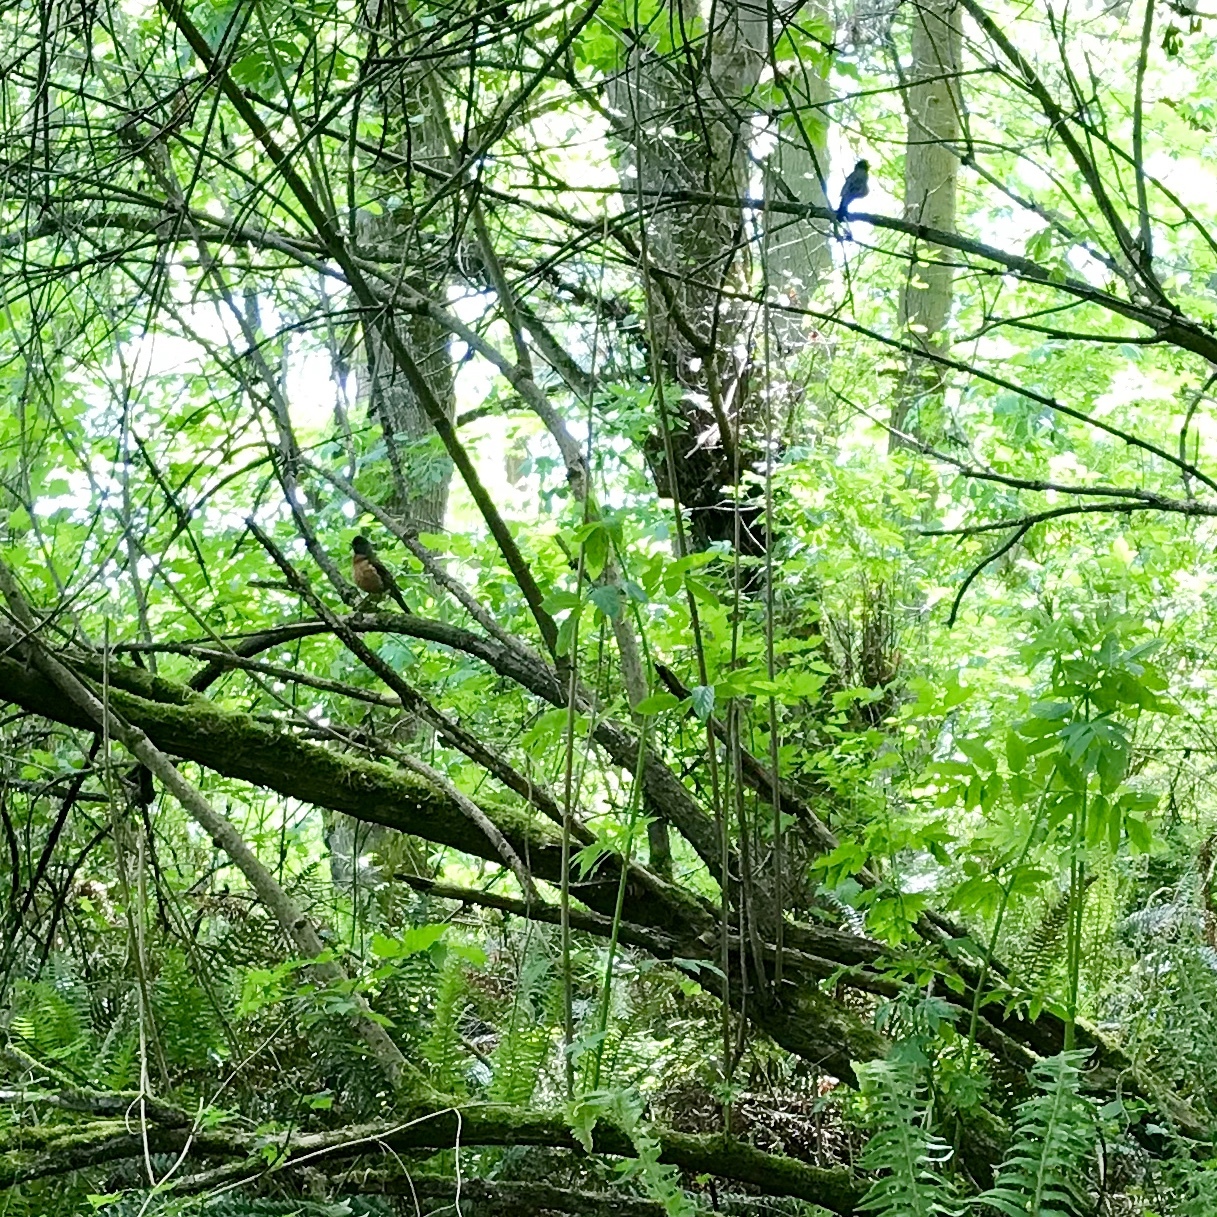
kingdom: Animalia
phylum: Chordata
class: Aves
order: Passeriformes
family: Turdidae
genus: Turdus
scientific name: Turdus migratorius
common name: American robin
